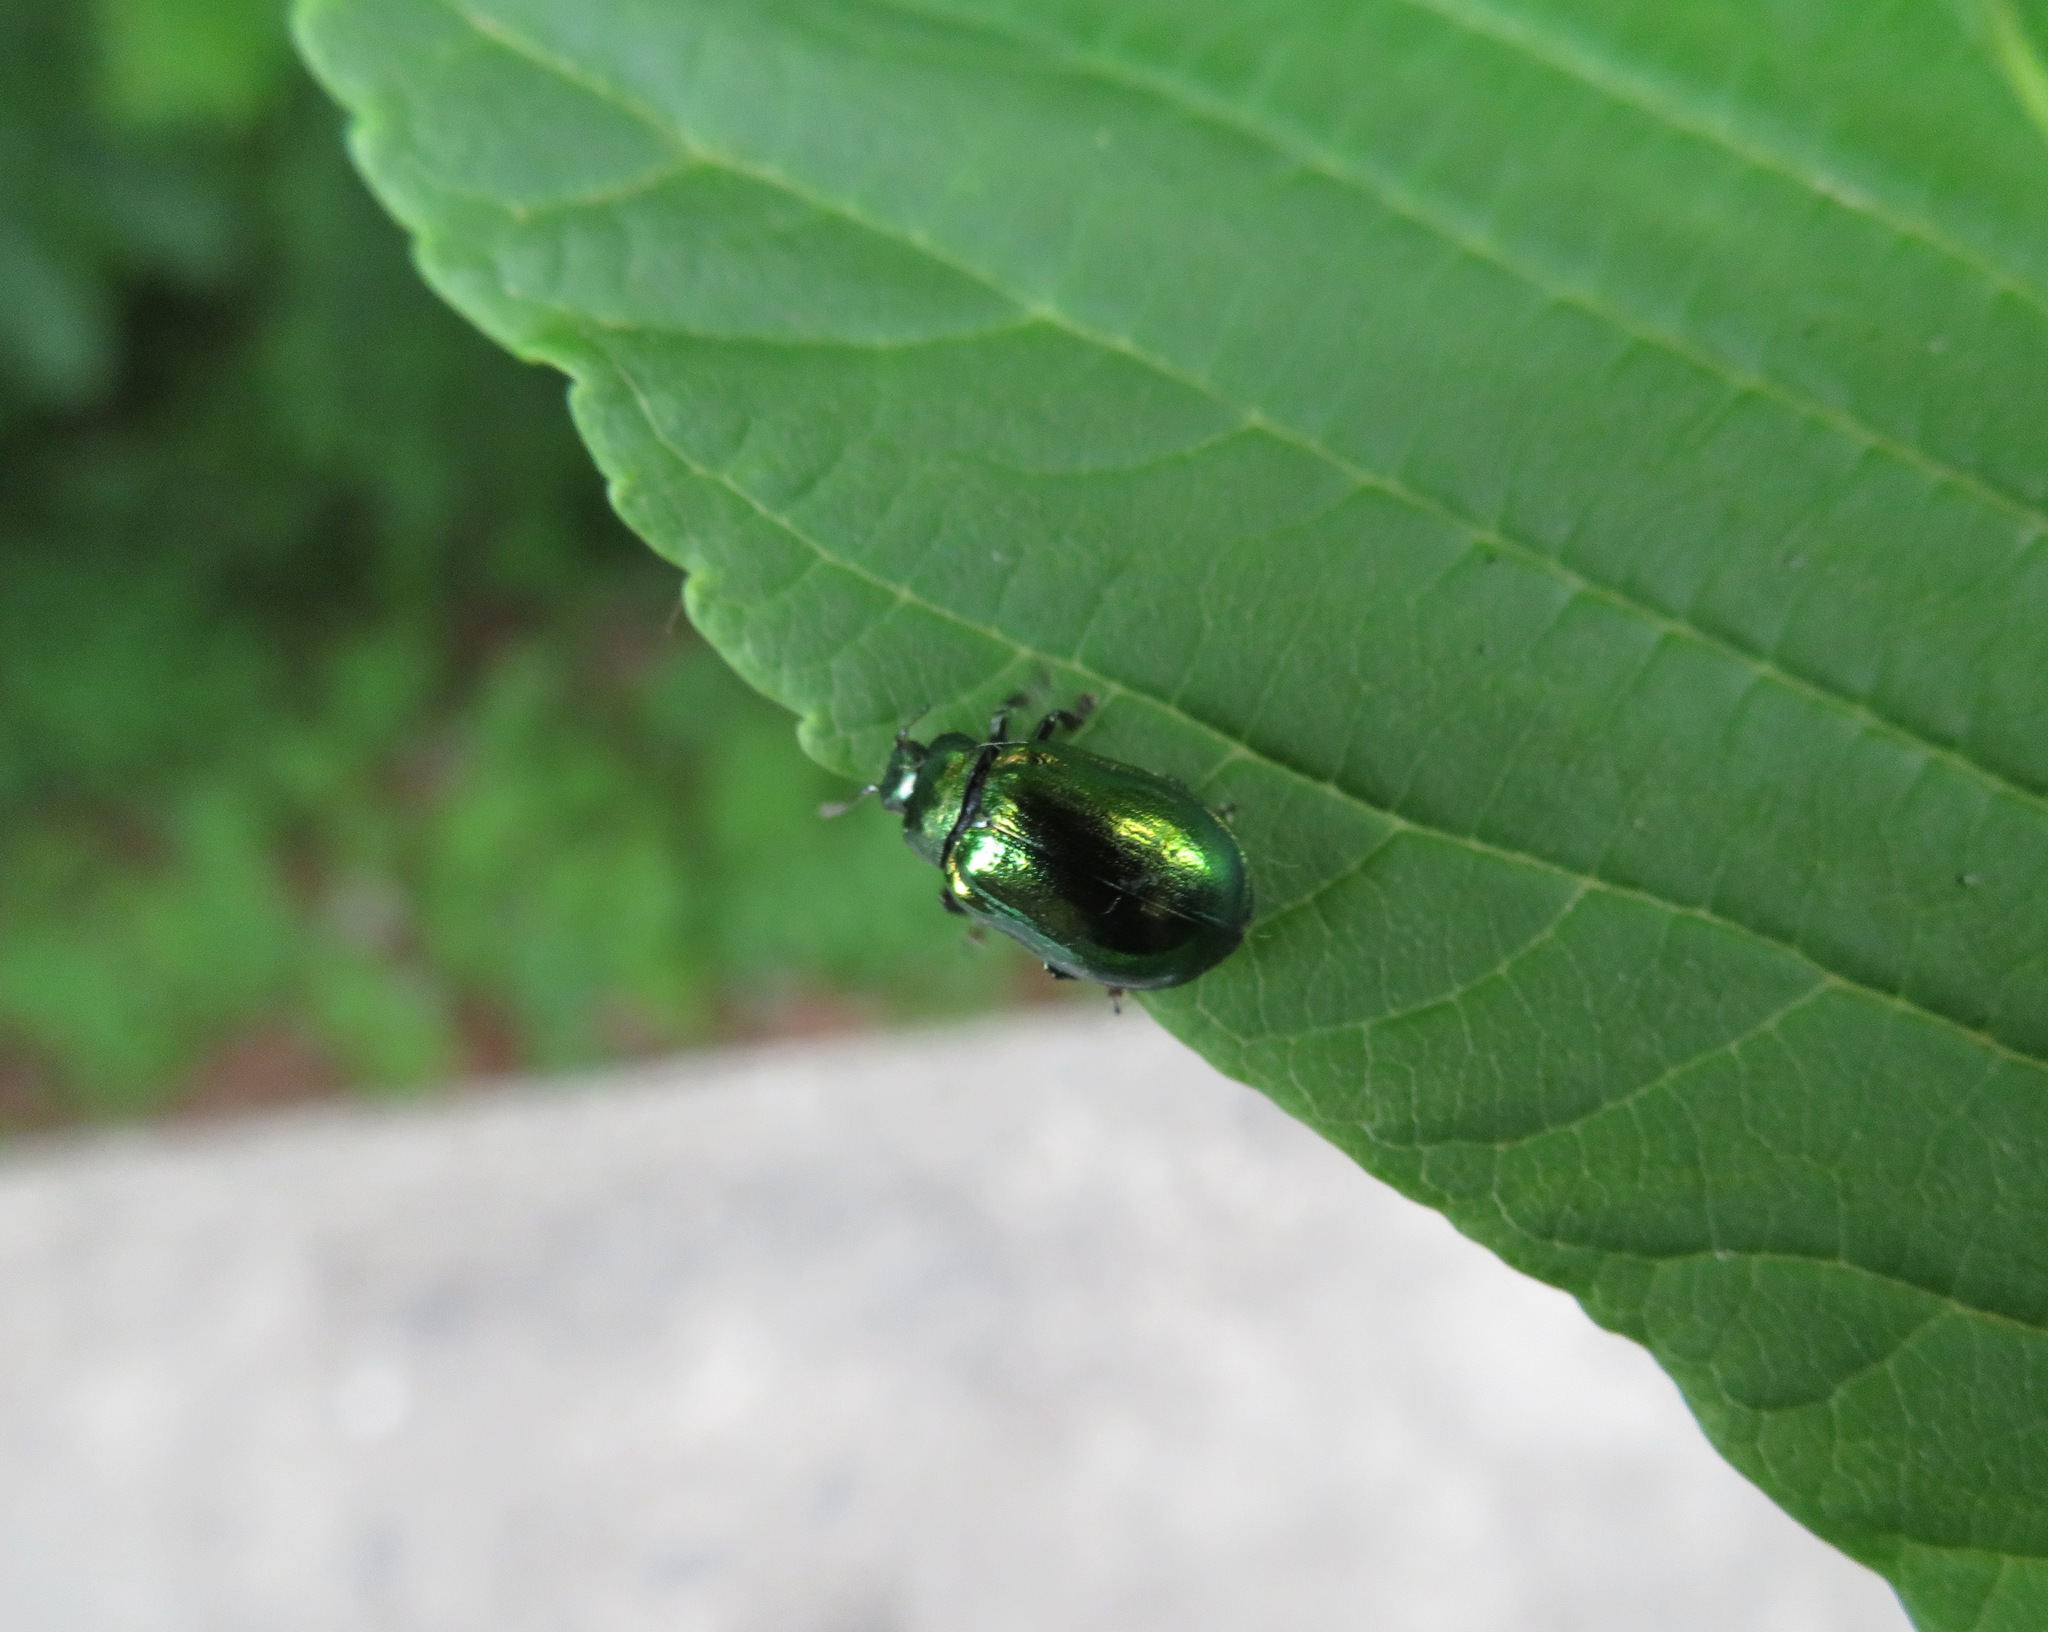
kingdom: Animalia
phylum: Arthropoda
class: Insecta
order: Coleoptera
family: Chrysomelidae
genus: Plagiosterna
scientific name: Plagiosterna aenea
